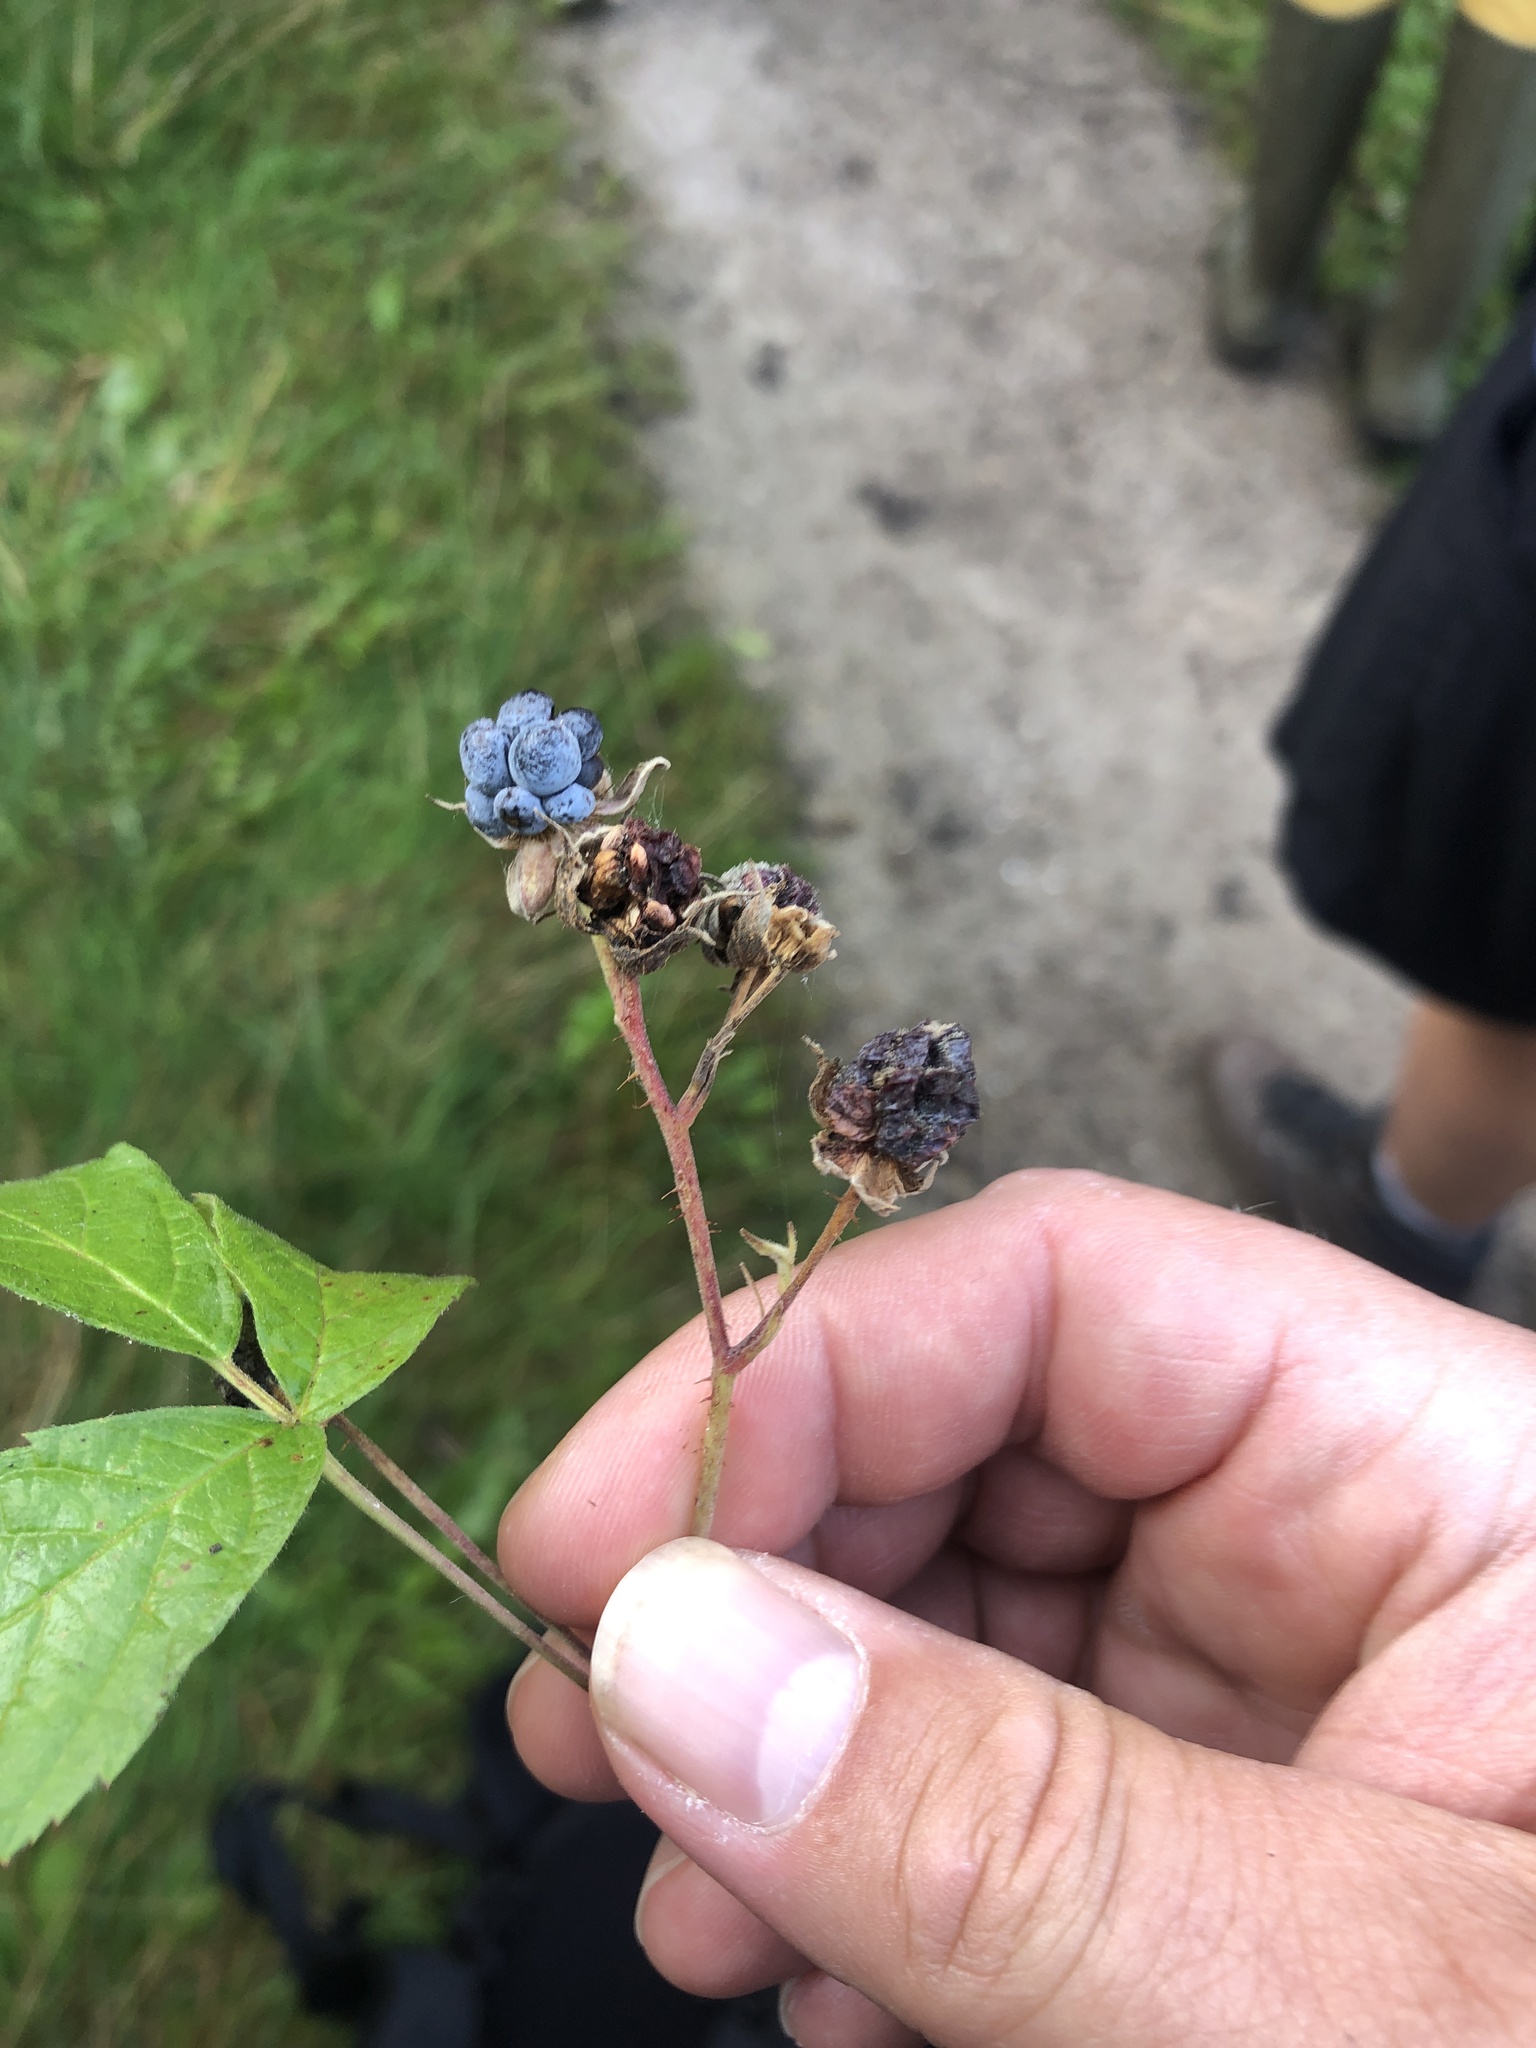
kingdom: Plantae
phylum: Tracheophyta
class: Magnoliopsida
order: Rosales
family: Rosaceae
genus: Rubus
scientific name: Rubus caesius
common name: Dewberry
